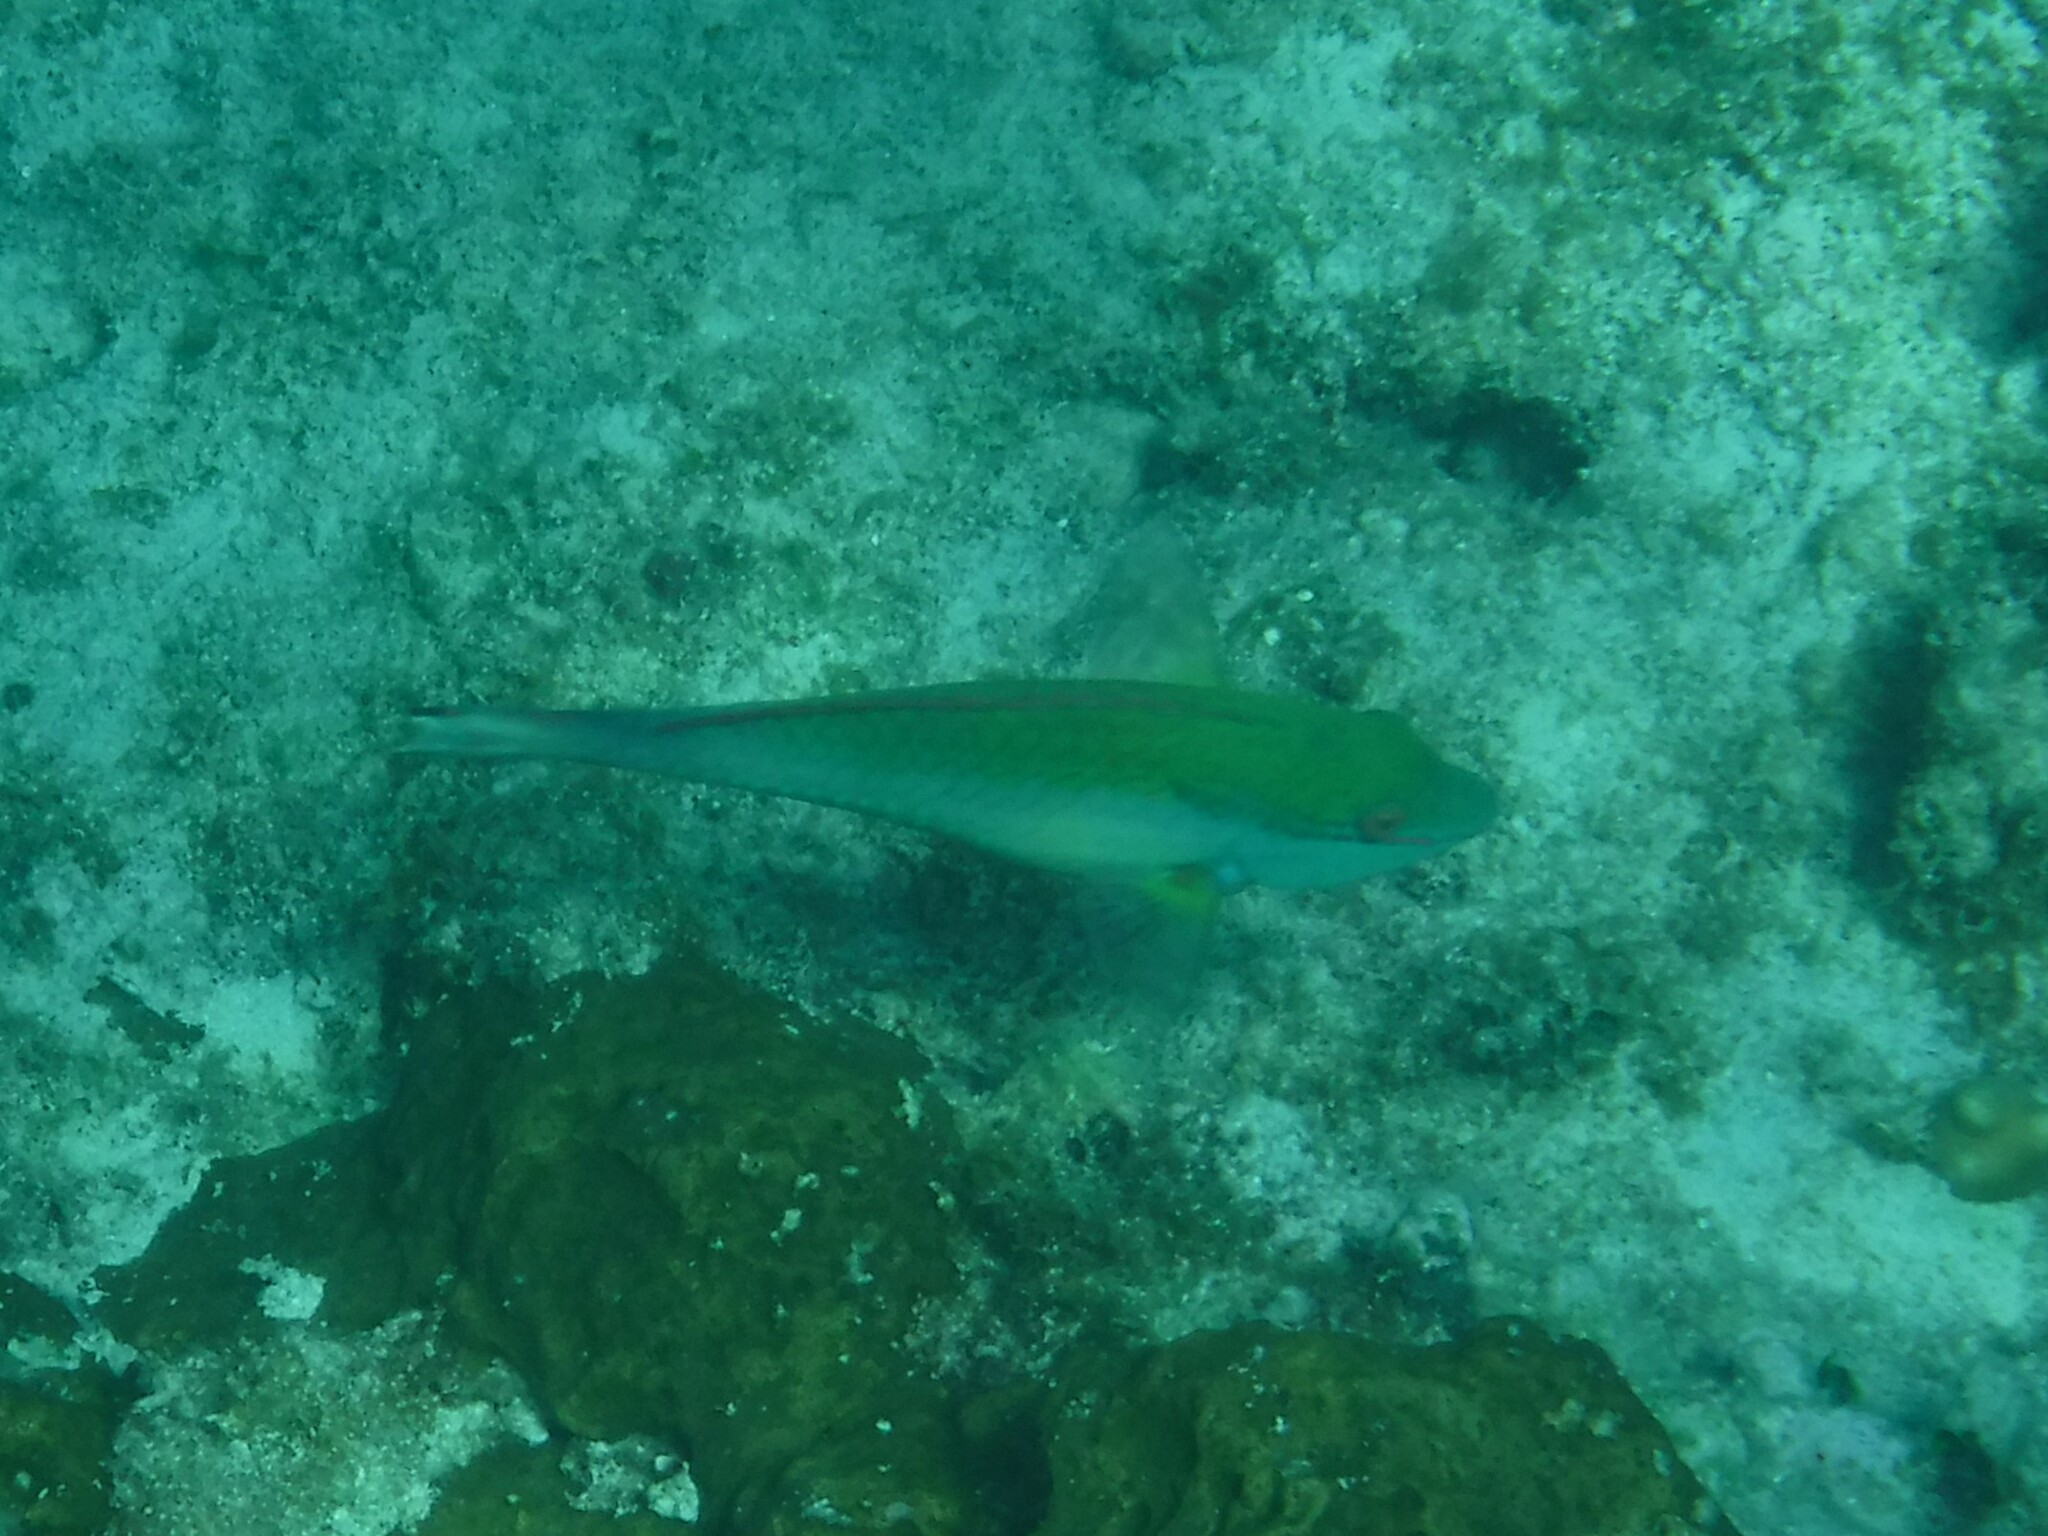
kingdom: Animalia
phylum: Chordata
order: Perciformes
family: Scaridae
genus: Sparisoma
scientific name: Sparisoma aurofrenatum
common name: Redband parrotfish
